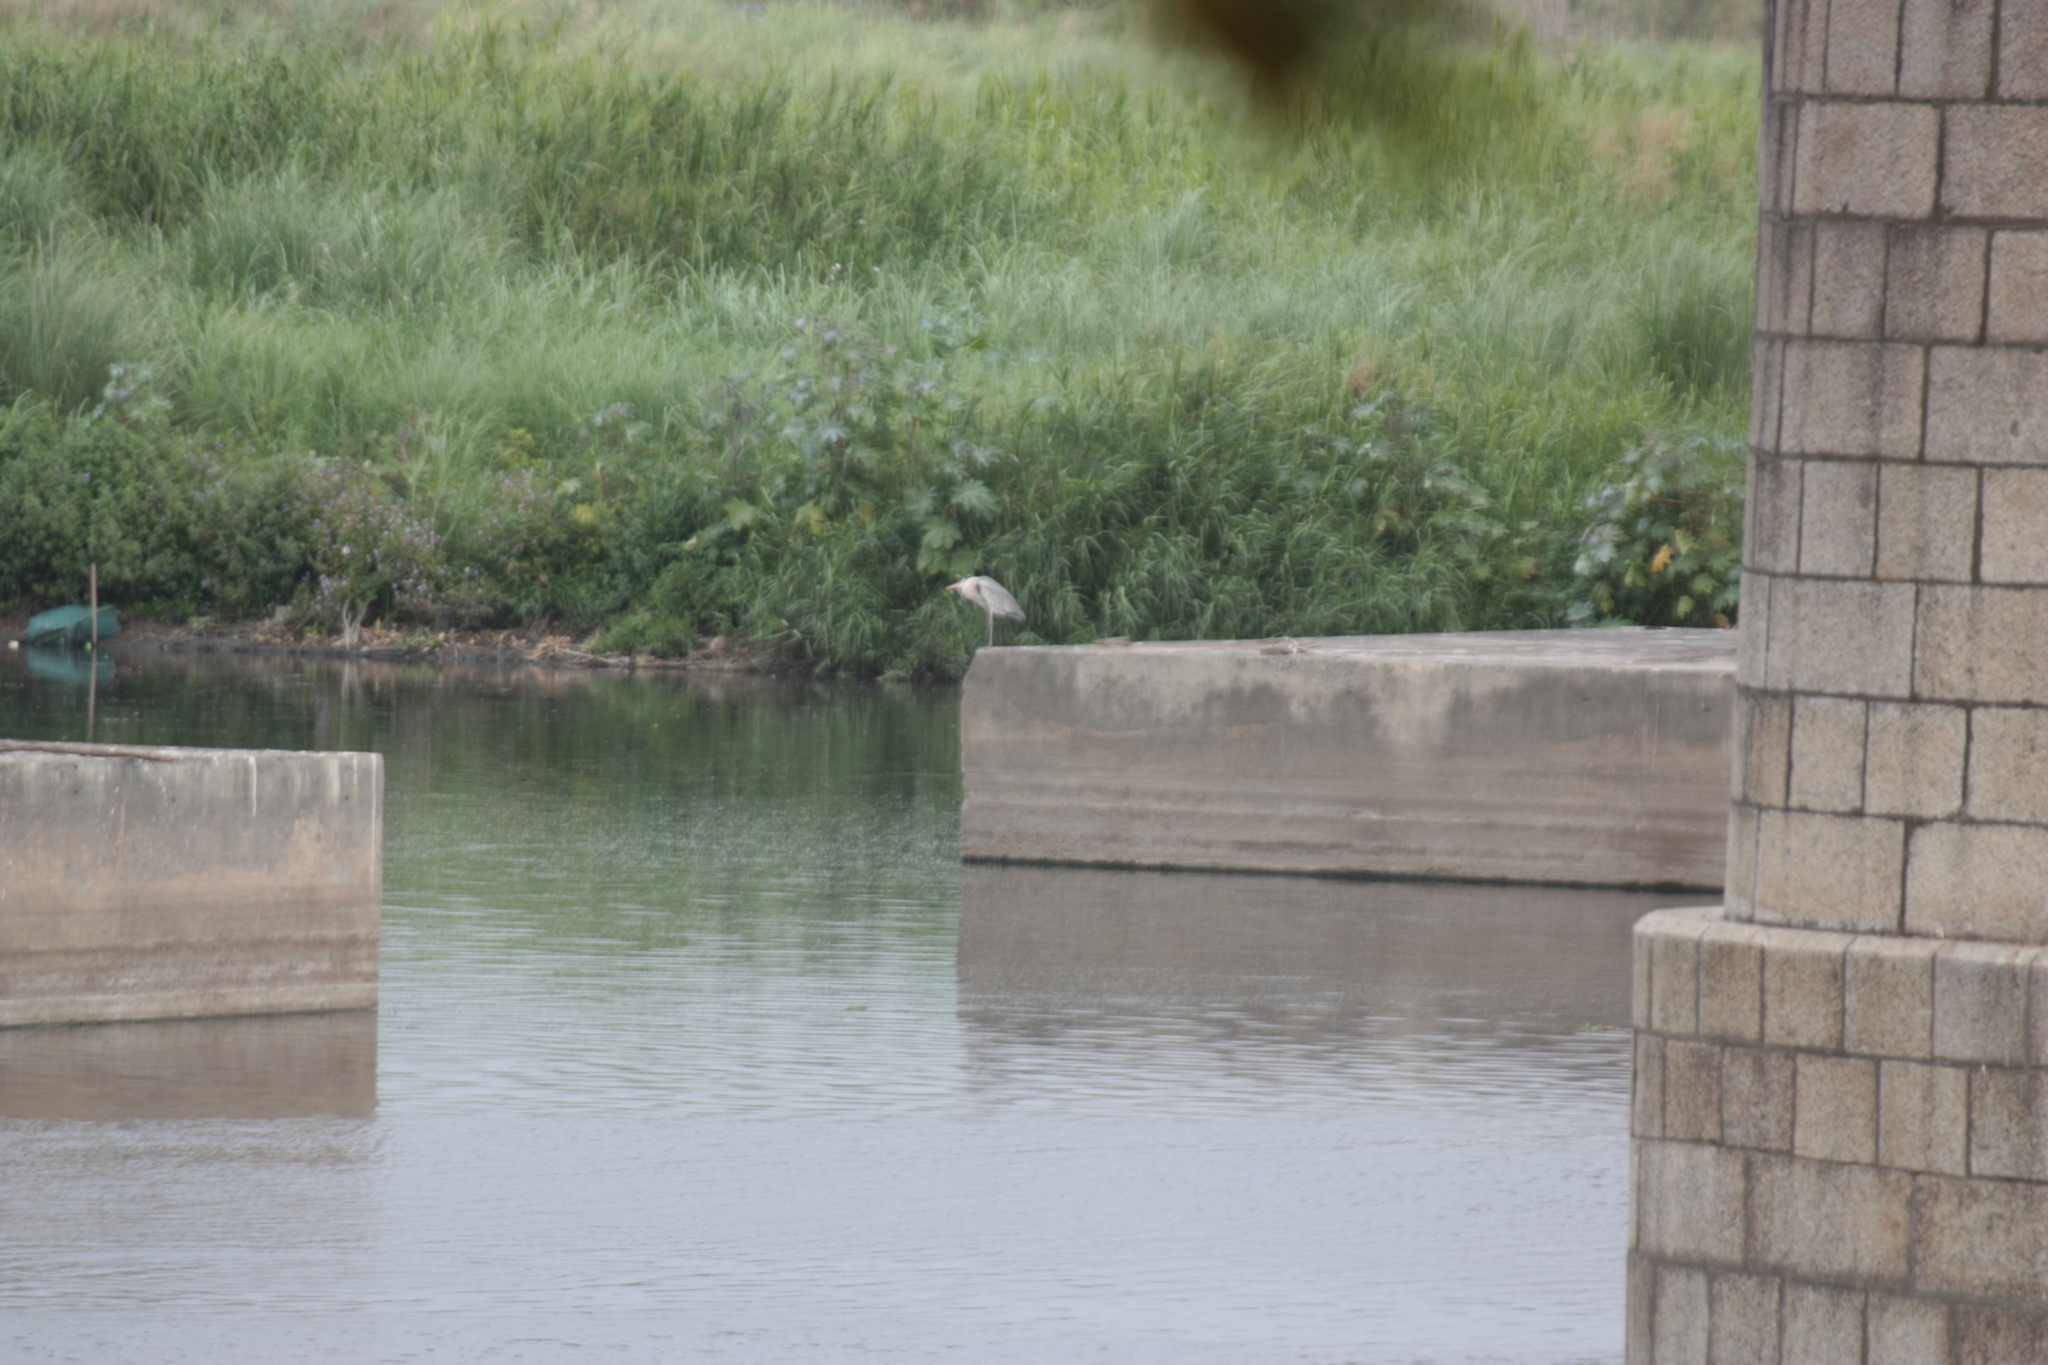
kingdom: Animalia
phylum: Chordata
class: Aves
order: Pelecaniformes
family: Ardeidae
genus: Ardea
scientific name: Ardea cinerea
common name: Grey heron
